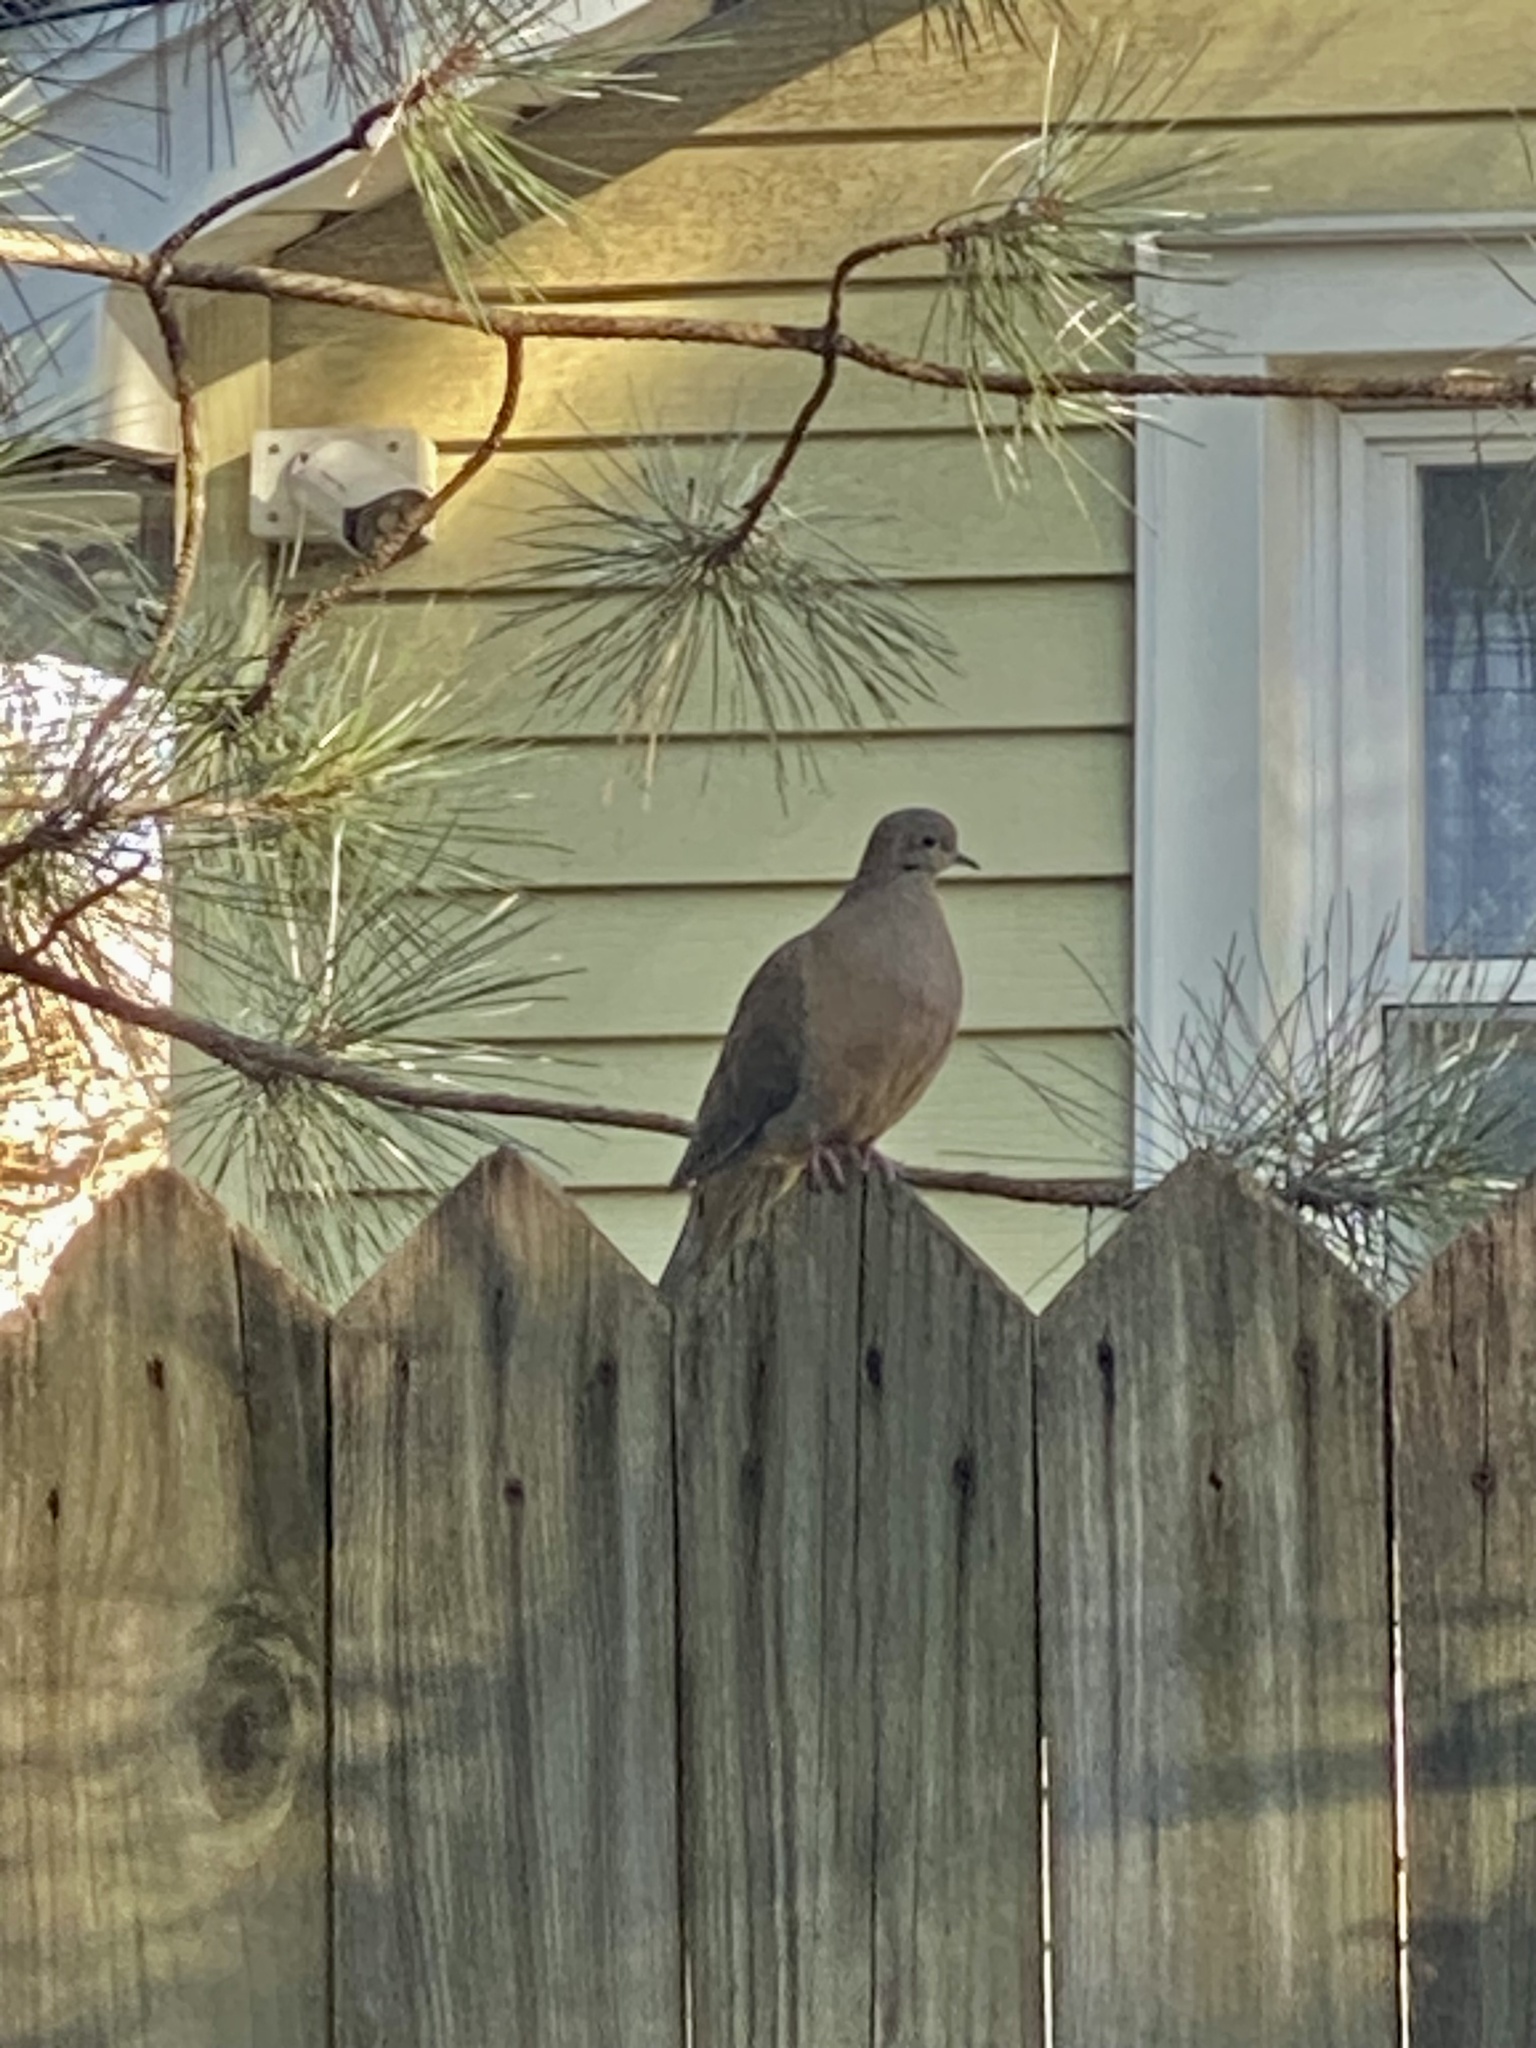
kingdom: Animalia
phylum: Chordata
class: Aves
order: Columbiformes
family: Columbidae
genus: Zenaida
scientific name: Zenaida macroura
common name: Mourning dove
